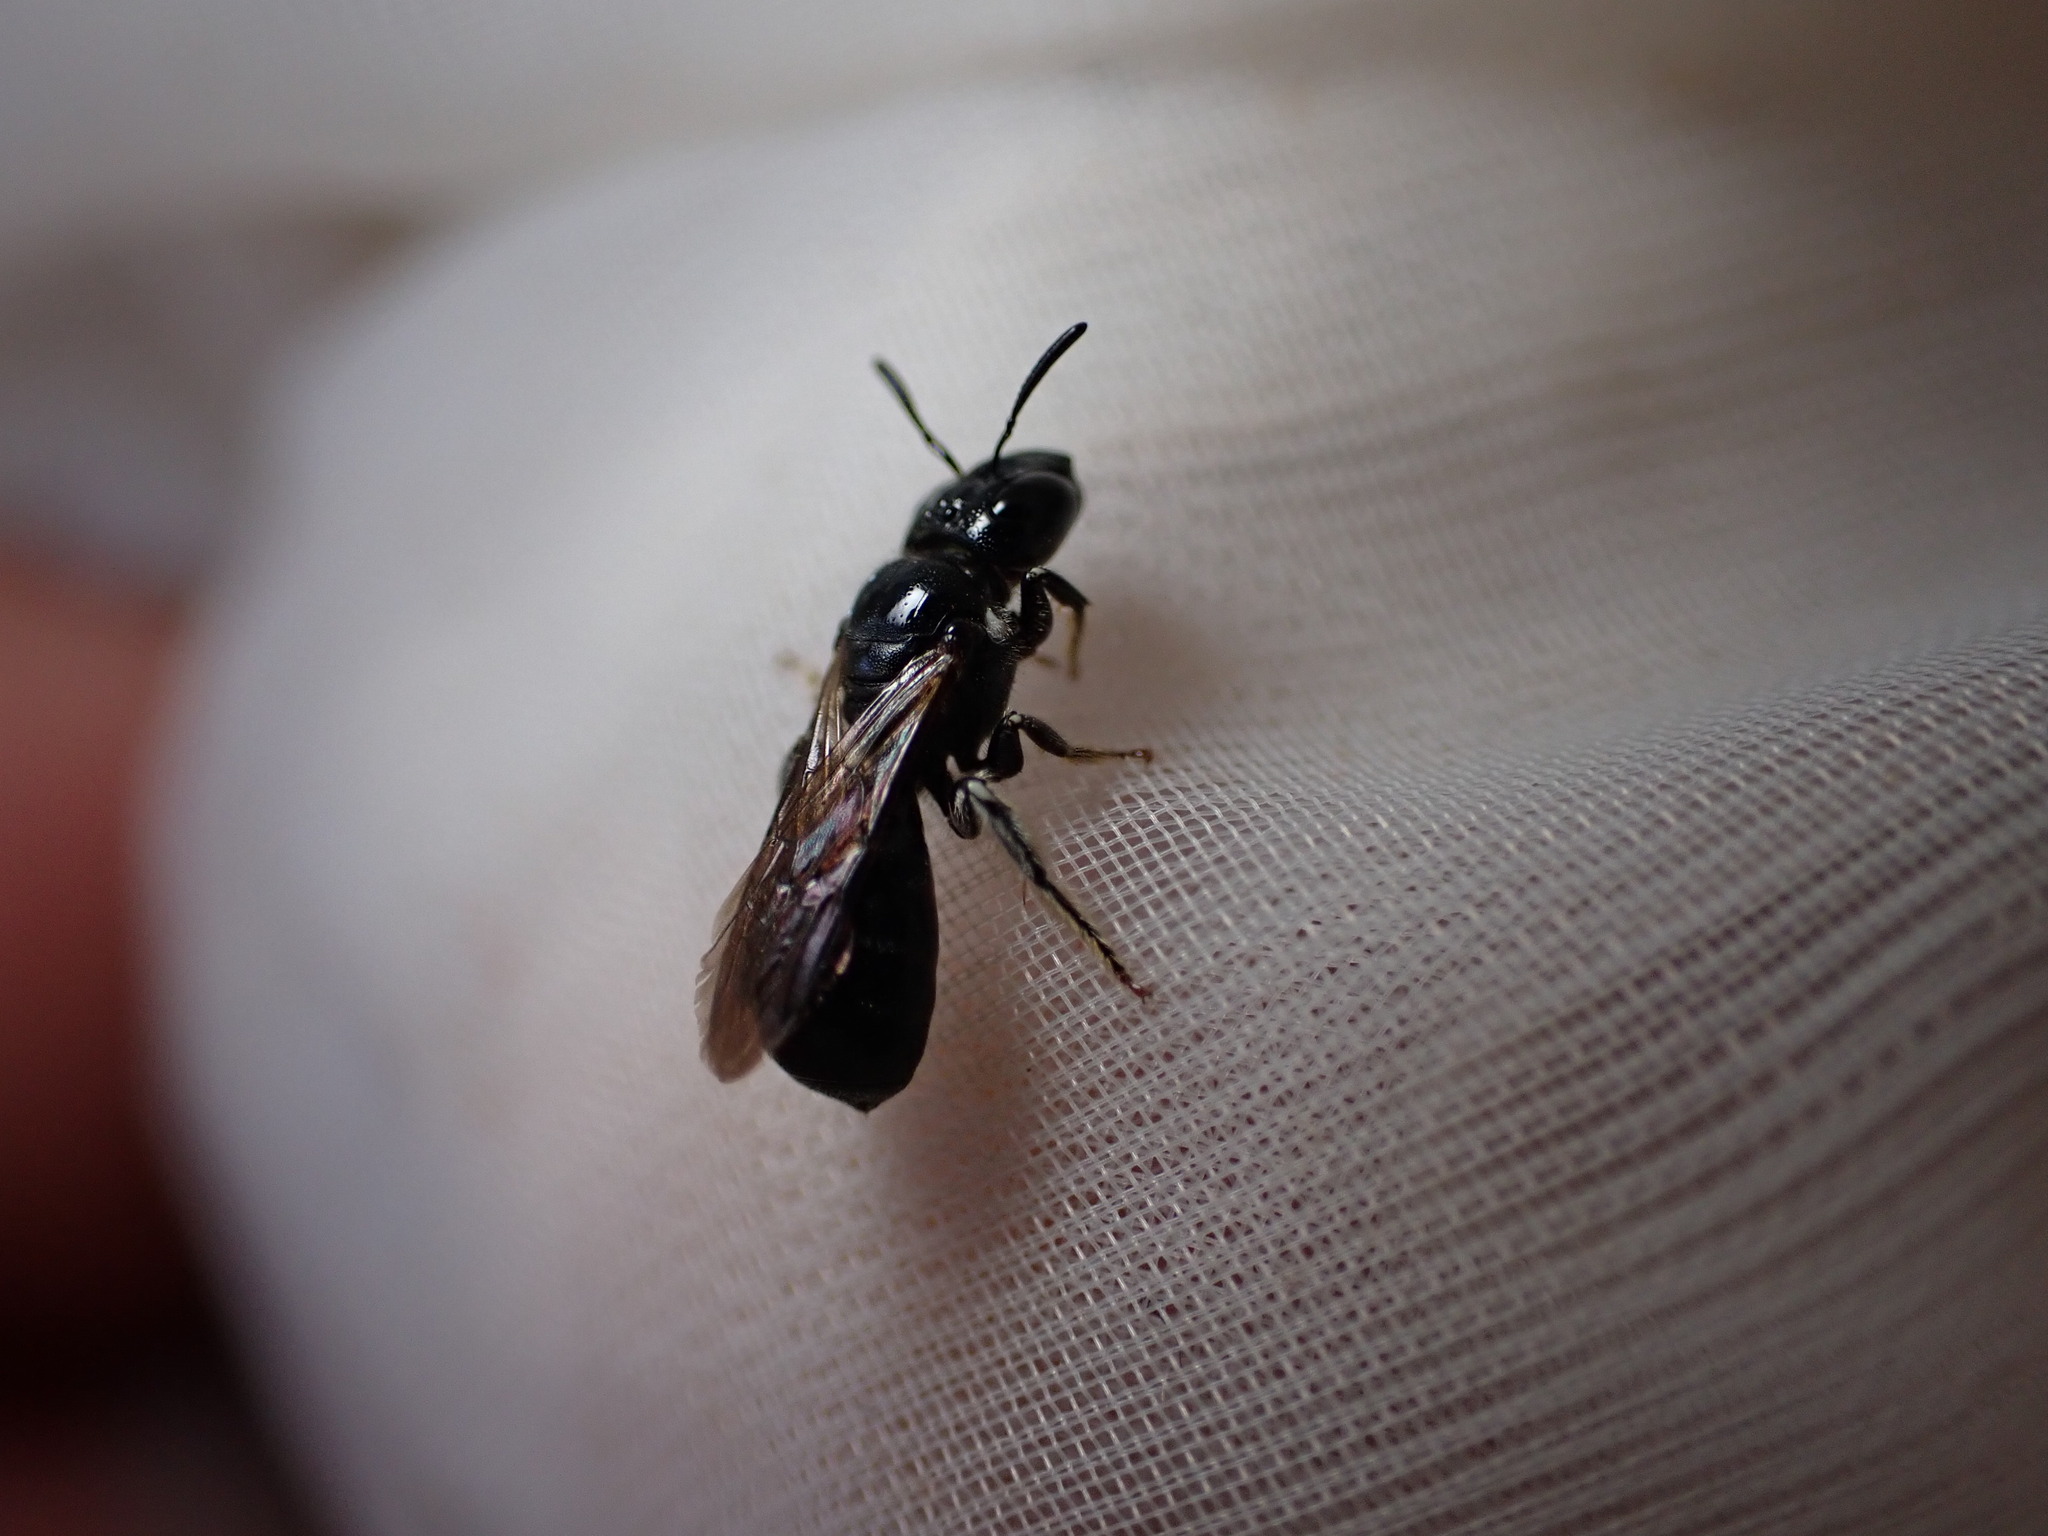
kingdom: Animalia
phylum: Arthropoda
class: Insecta
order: Hymenoptera
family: Apidae
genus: Ceratina
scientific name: Ceratina cucurbitina
